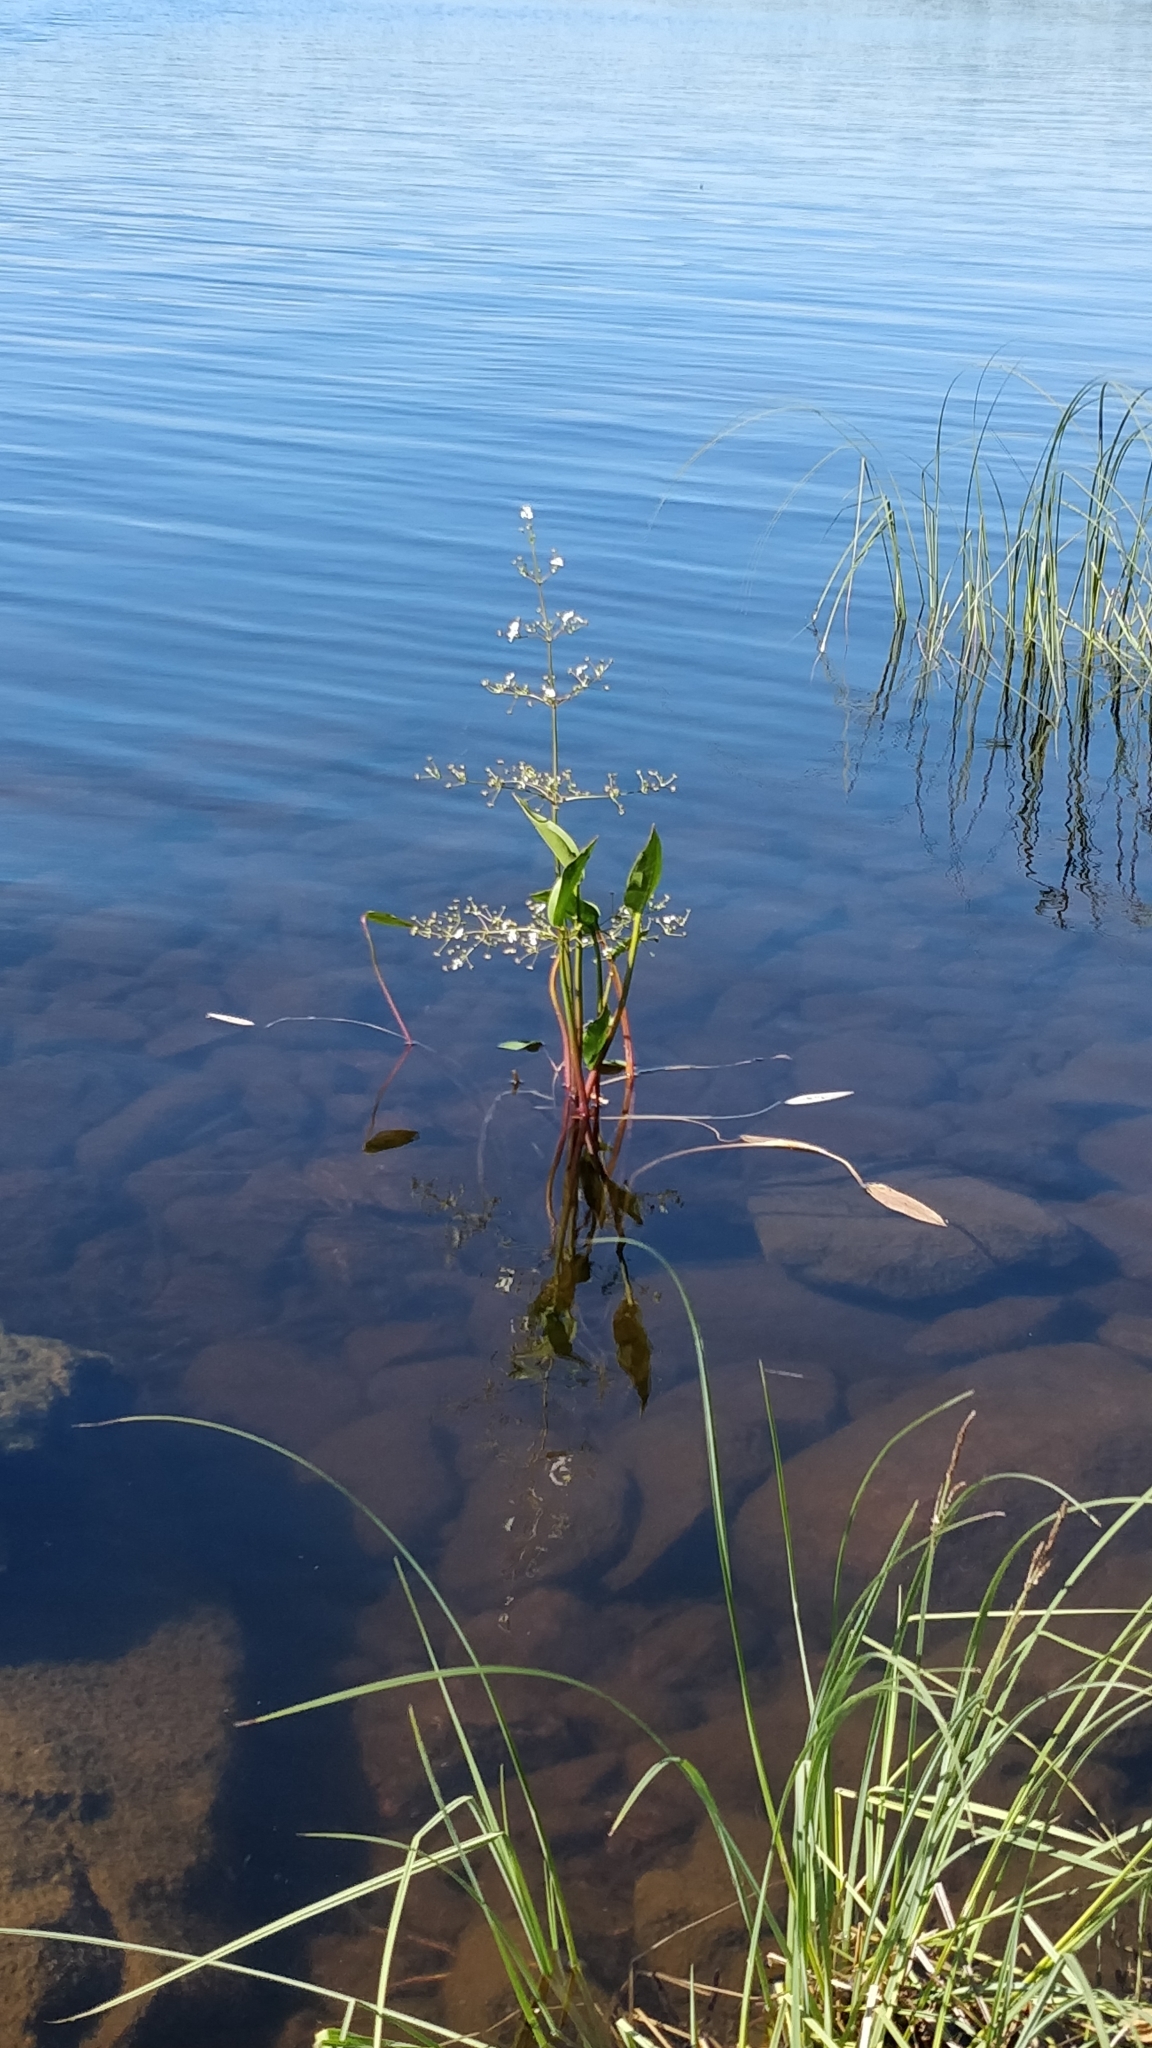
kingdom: Plantae
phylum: Tracheophyta
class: Liliopsida
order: Alismatales
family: Alismataceae
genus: Alisma
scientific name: Alisma plantago-aquatica
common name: Water-plantain
